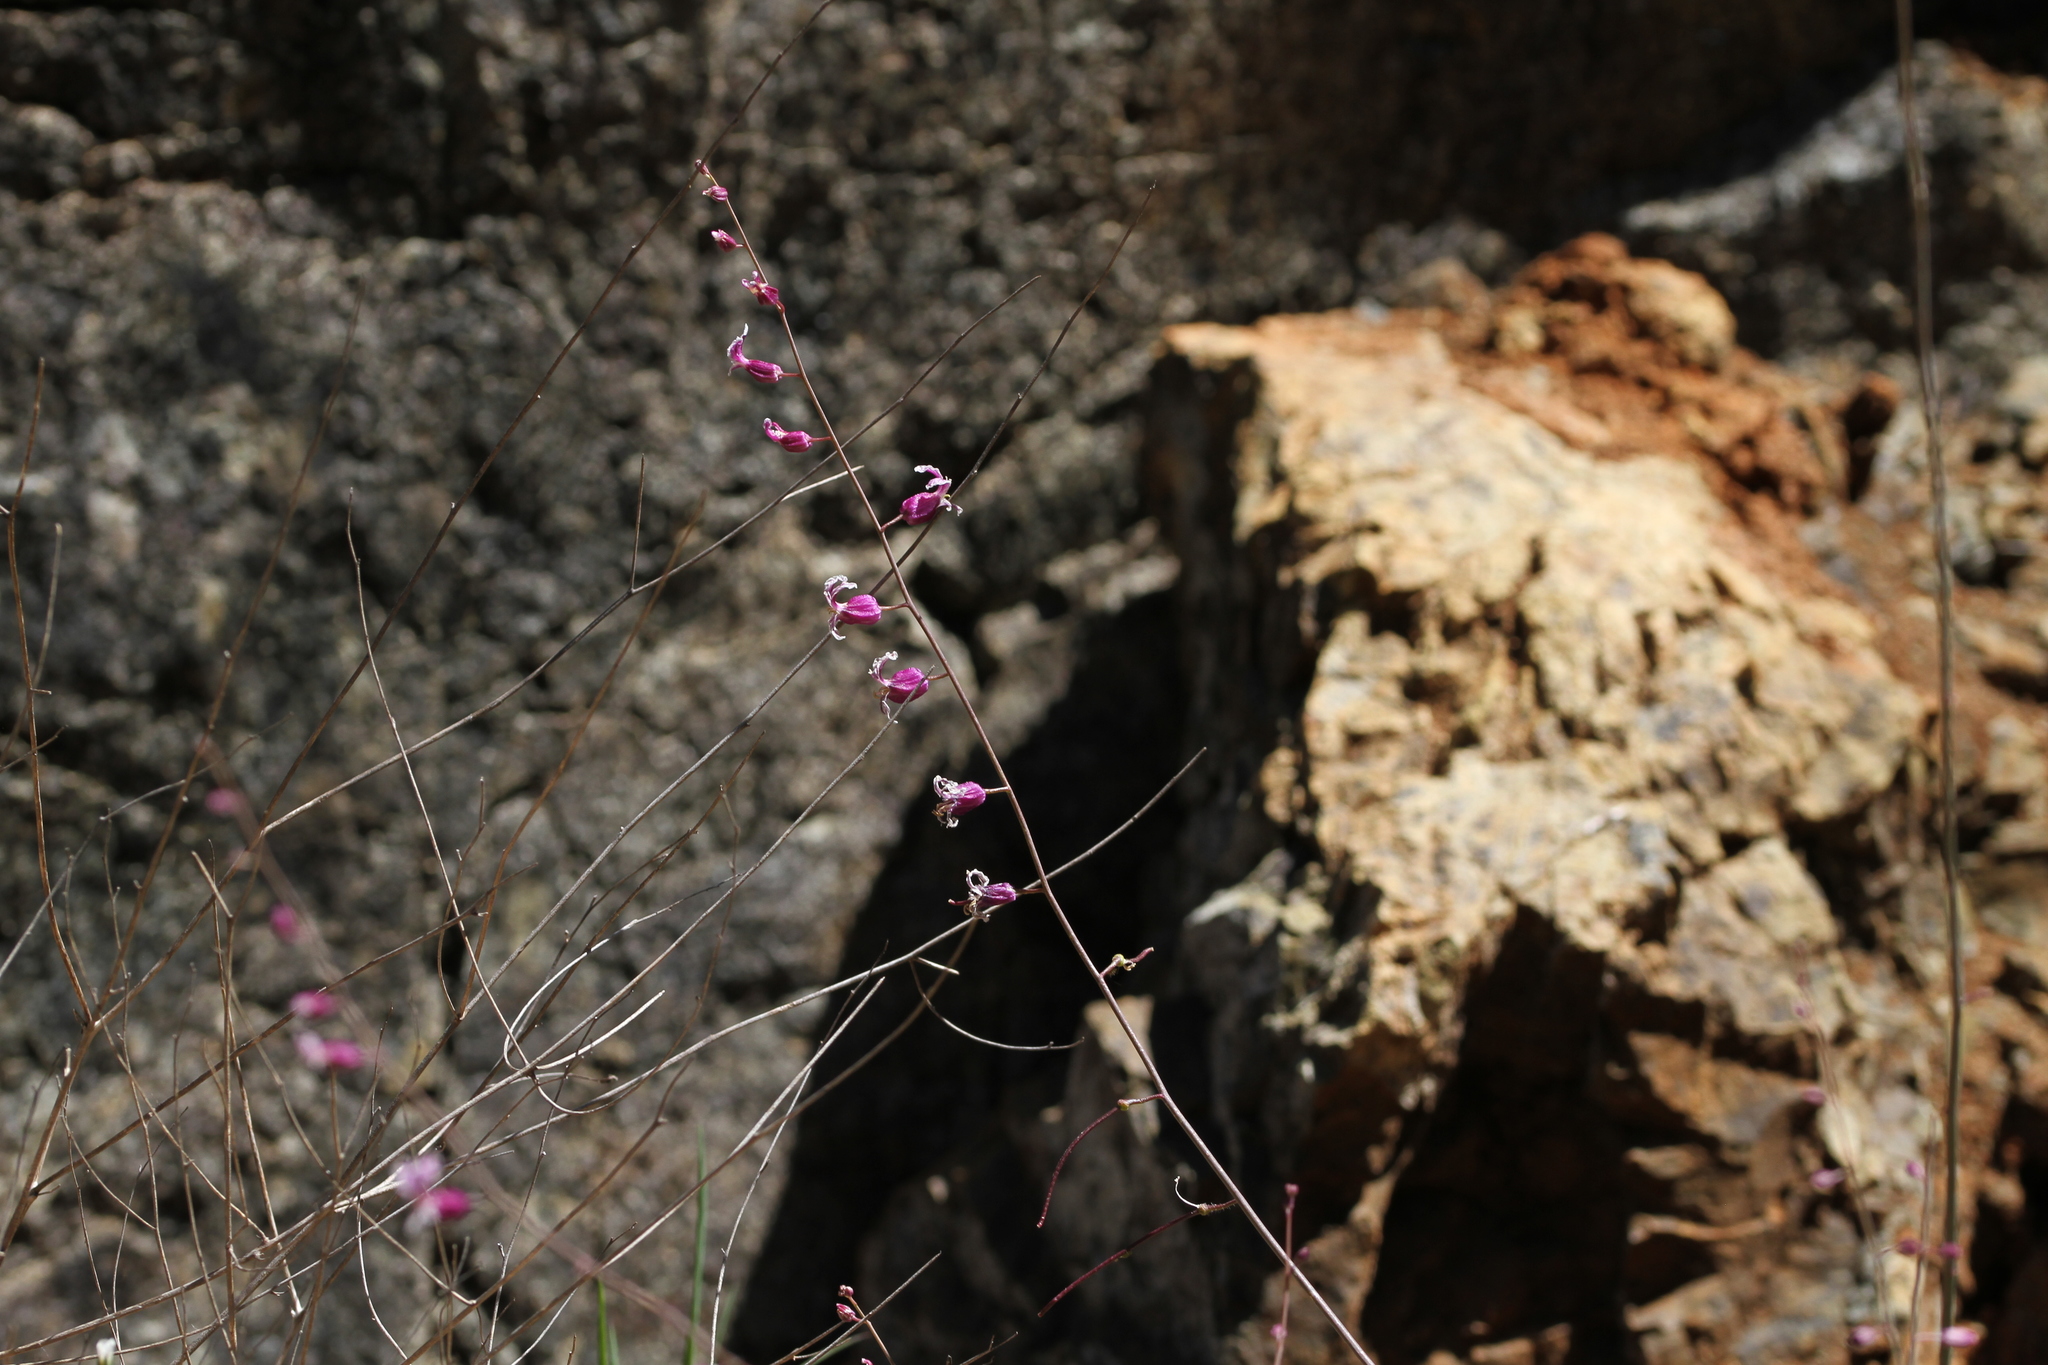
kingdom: Plantae
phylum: Tracheophyta
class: Magnoliopsida
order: Brassicales
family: Brassicaceae
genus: Streptanthus
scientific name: Streptanthus glandulosus
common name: Jewel-flower
